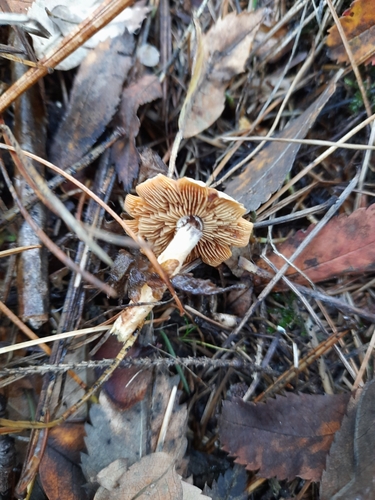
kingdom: Fungi
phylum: Basidiomycota
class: Agaricomycetes
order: Agaricales
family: Cortinariaceae
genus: Cortinarius
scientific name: Cortinarius
